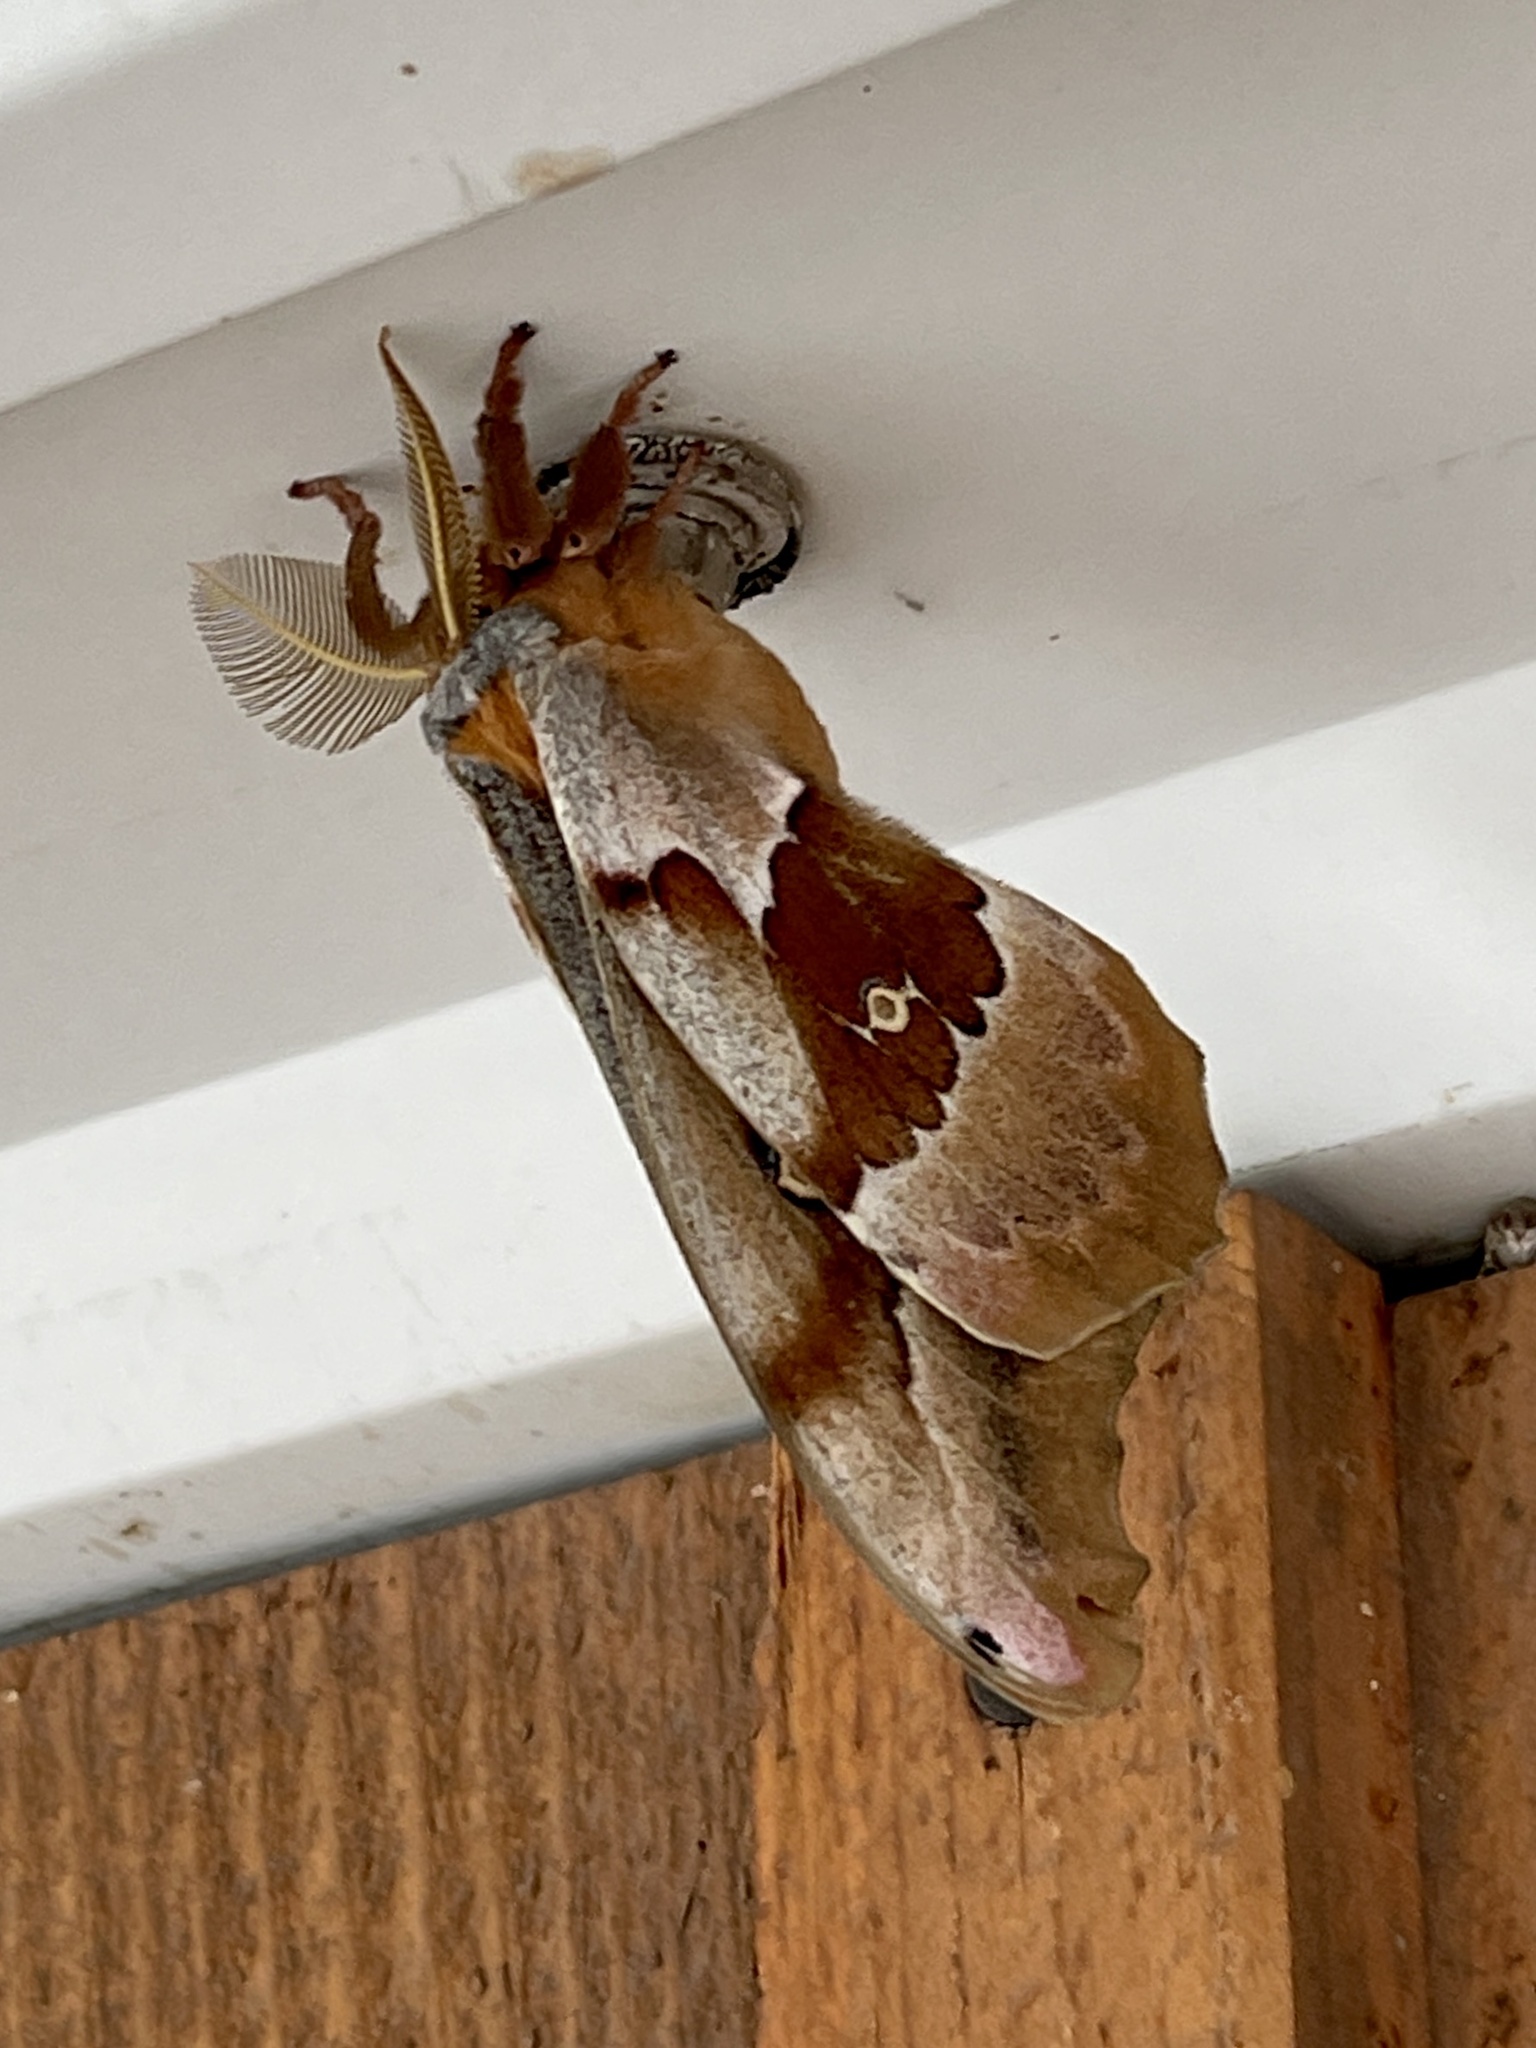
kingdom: Animalia
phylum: Arthropoda
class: Insecta
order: Lepidoptera
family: Saturniidae
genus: Antheraea
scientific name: Antheraea oculea
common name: Arizona polyphemus moth
